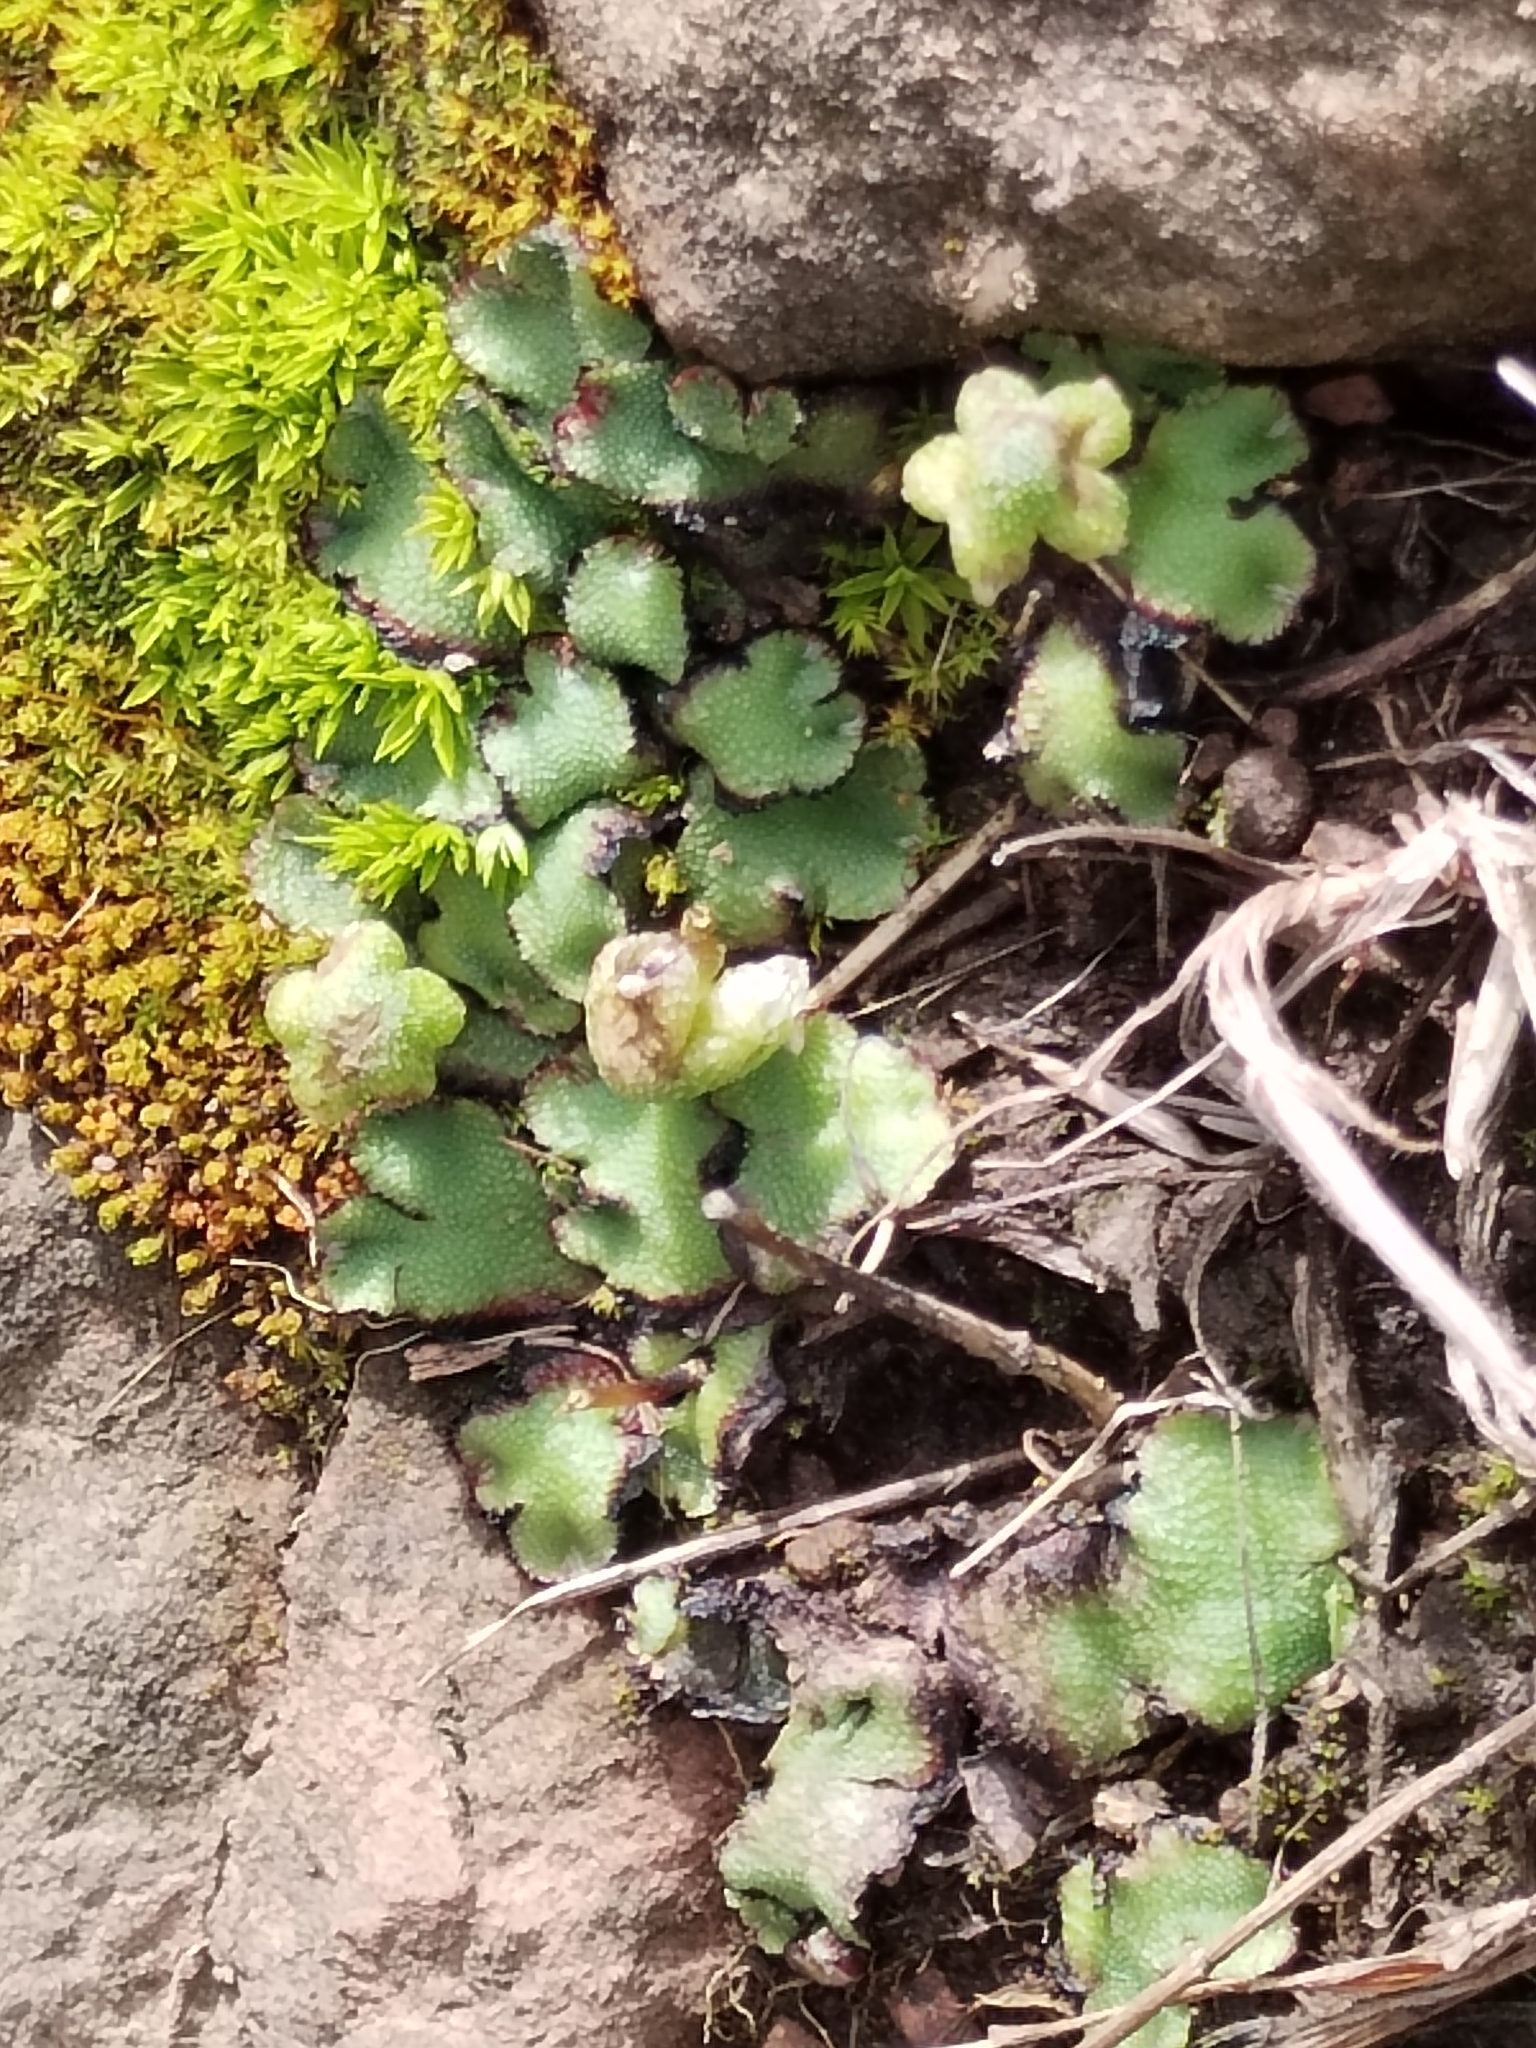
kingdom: Plantae
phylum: Marchantiophyta
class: Marchantiopsida
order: Marchantiales
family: Aytoniaceae
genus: Asterella
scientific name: Asterella californica
